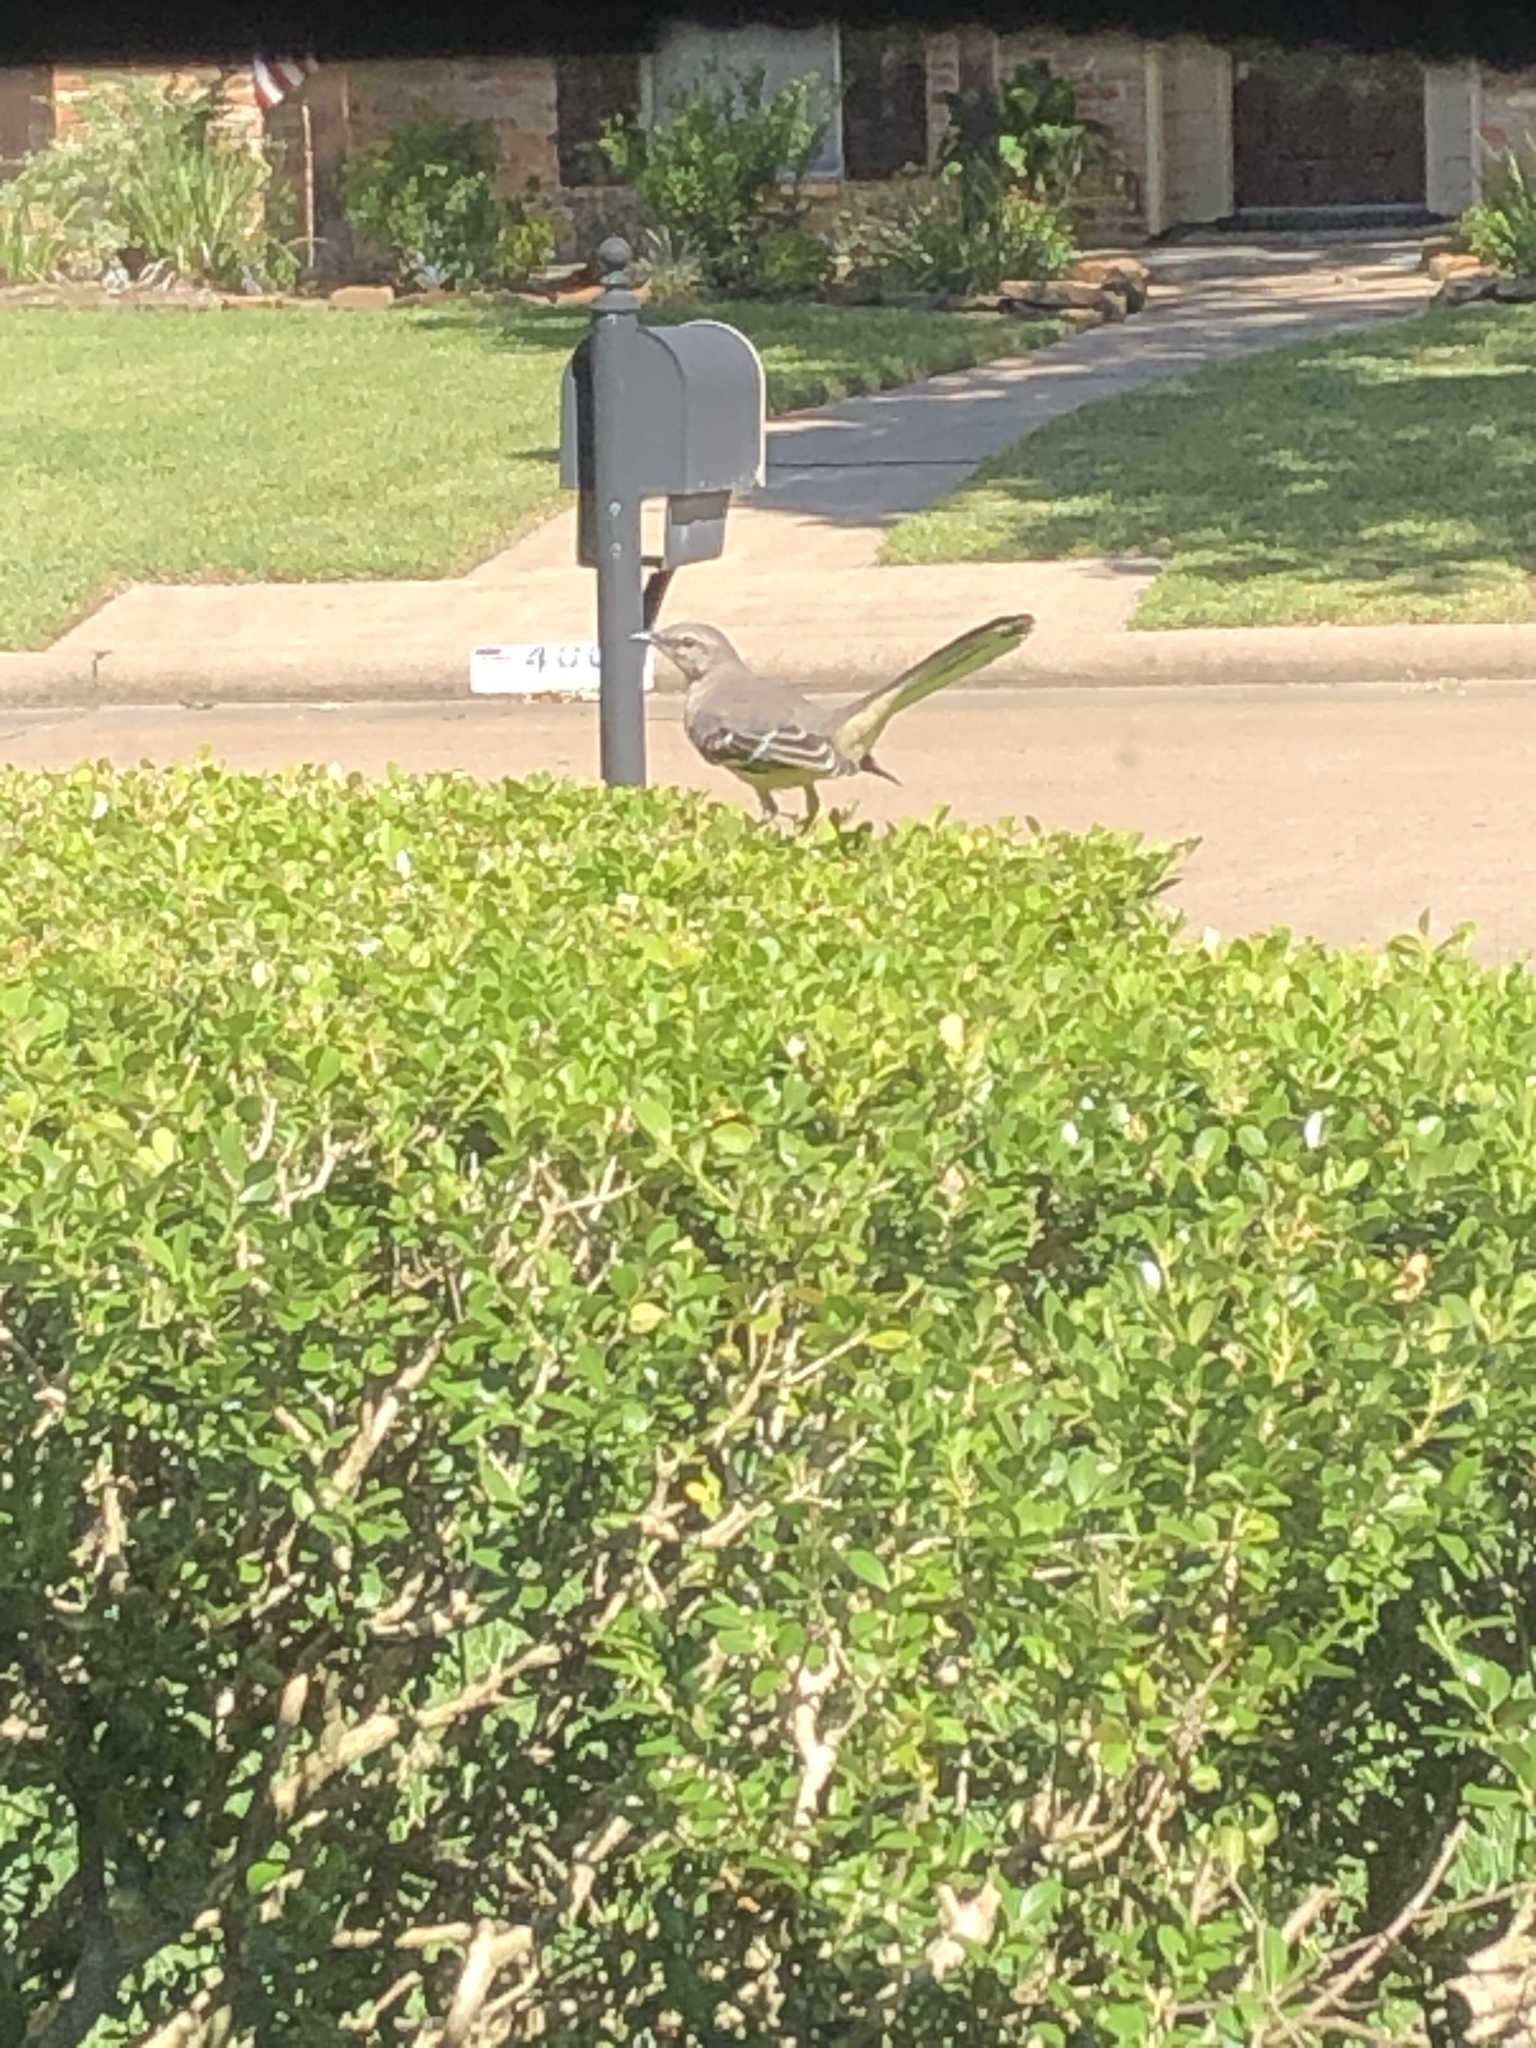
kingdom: Animalia
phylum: Chordata
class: Aves
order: Passeriformes
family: Mimidae
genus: Mimus
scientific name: Mimus polyglottos
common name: Northern mockingbird
